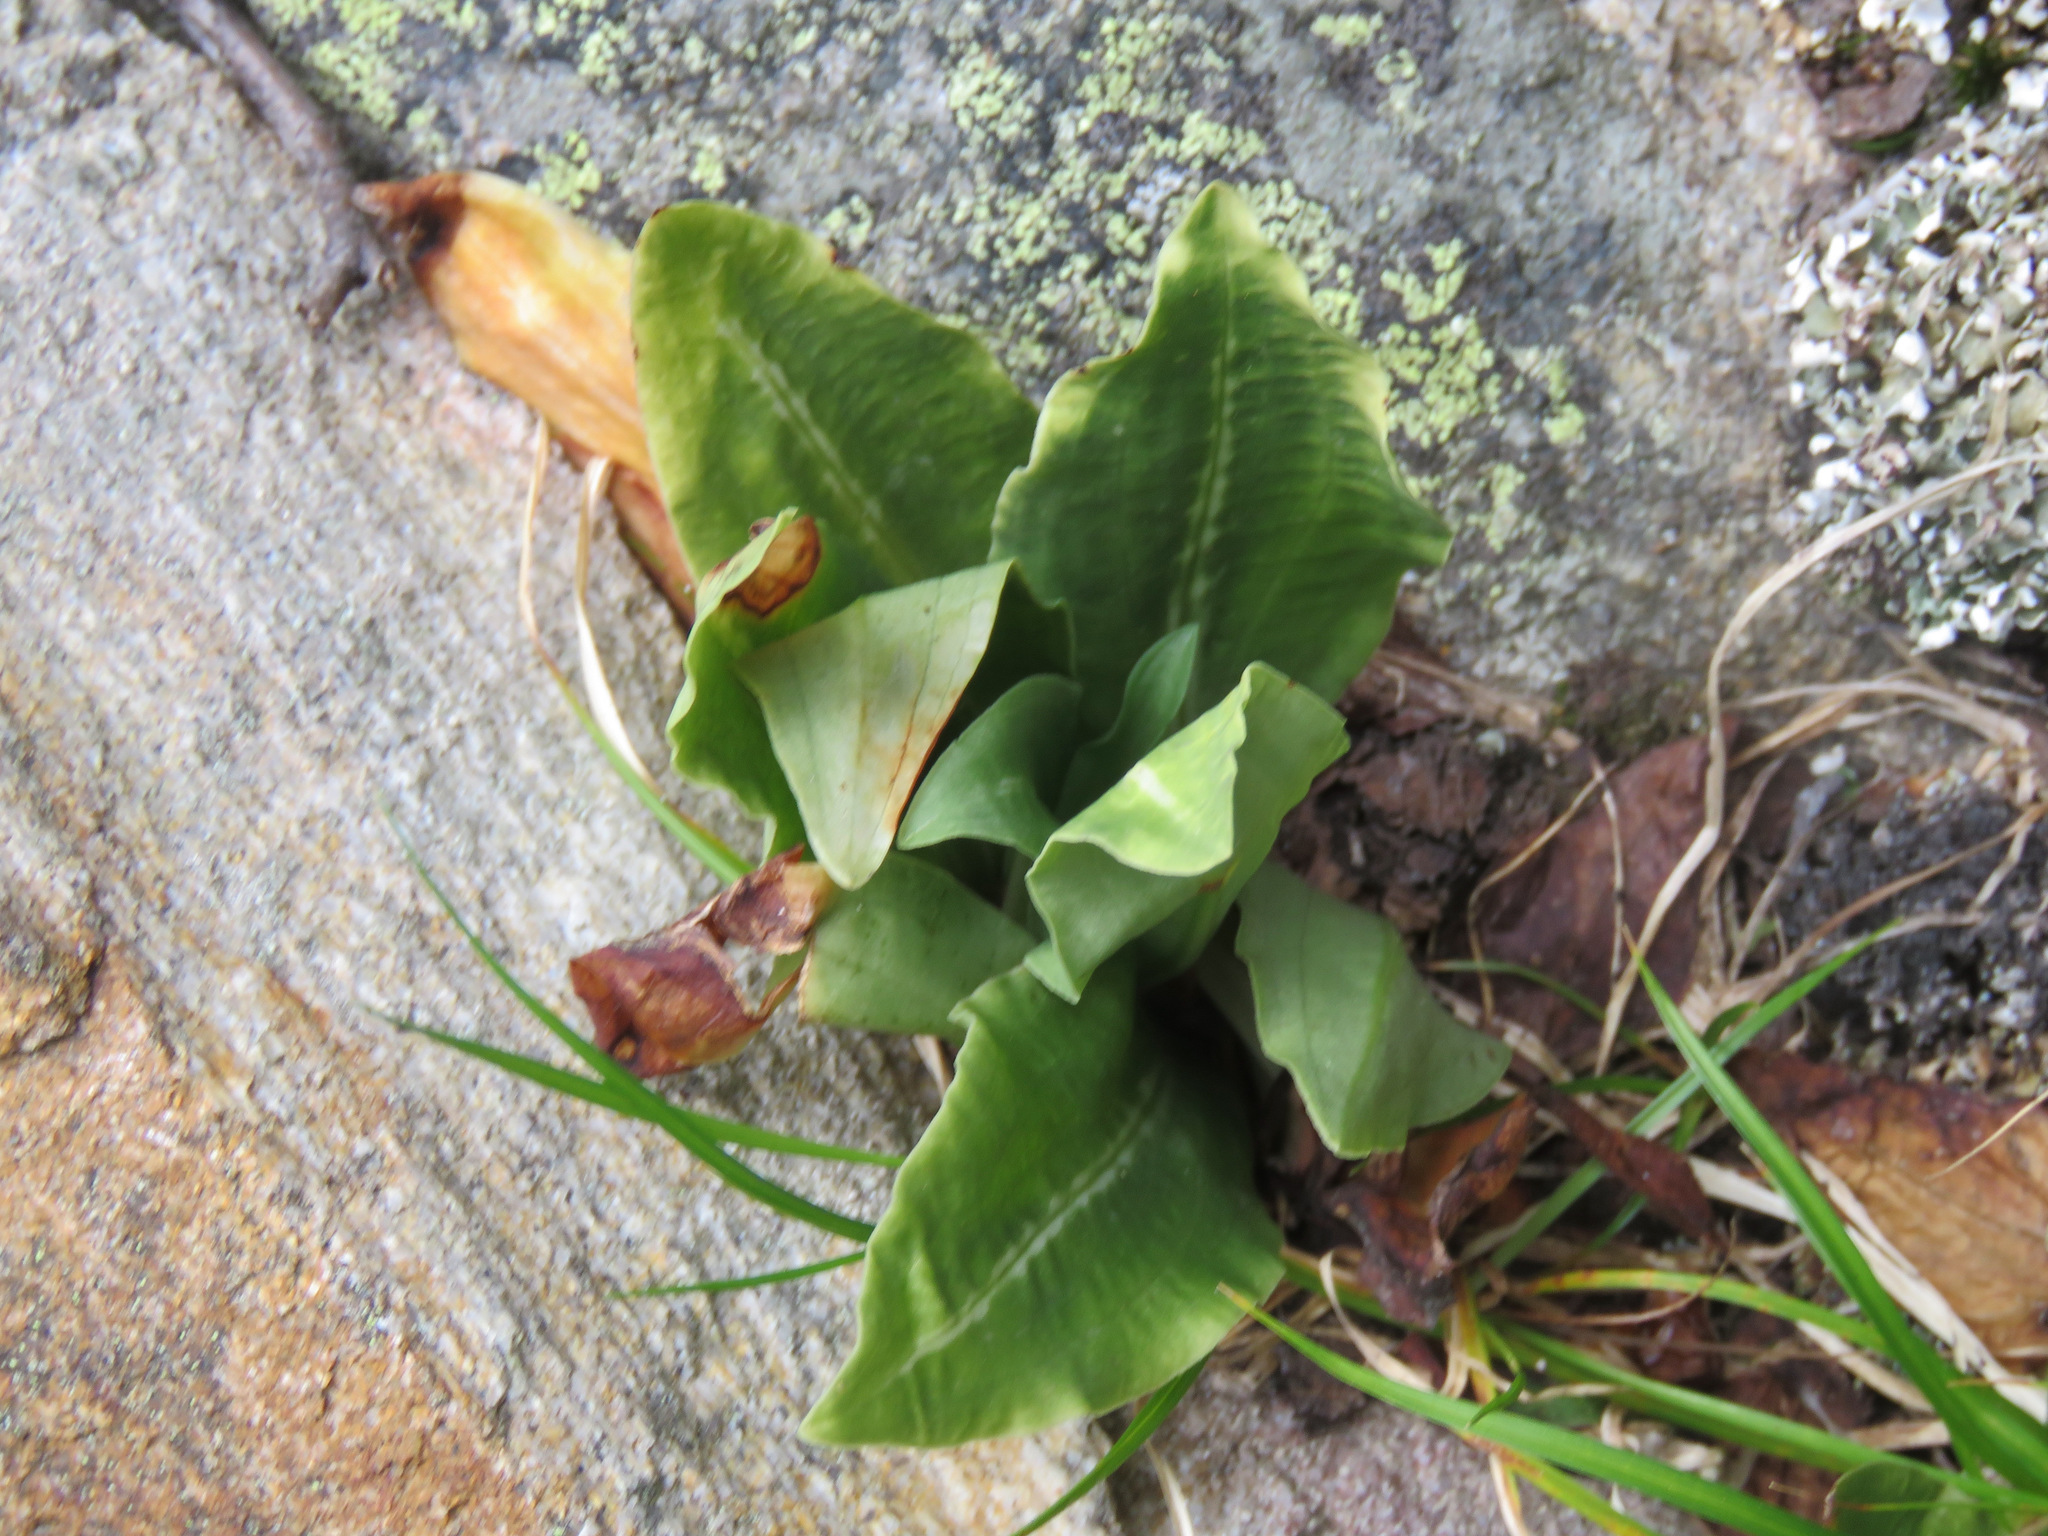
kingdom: Plantae
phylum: Tracheophyta
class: Liliopsida
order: Asparagales
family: Orchidaceae
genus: Goodyera
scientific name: Goodyera oblongifolia
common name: Giant rattlesnake-plantain
